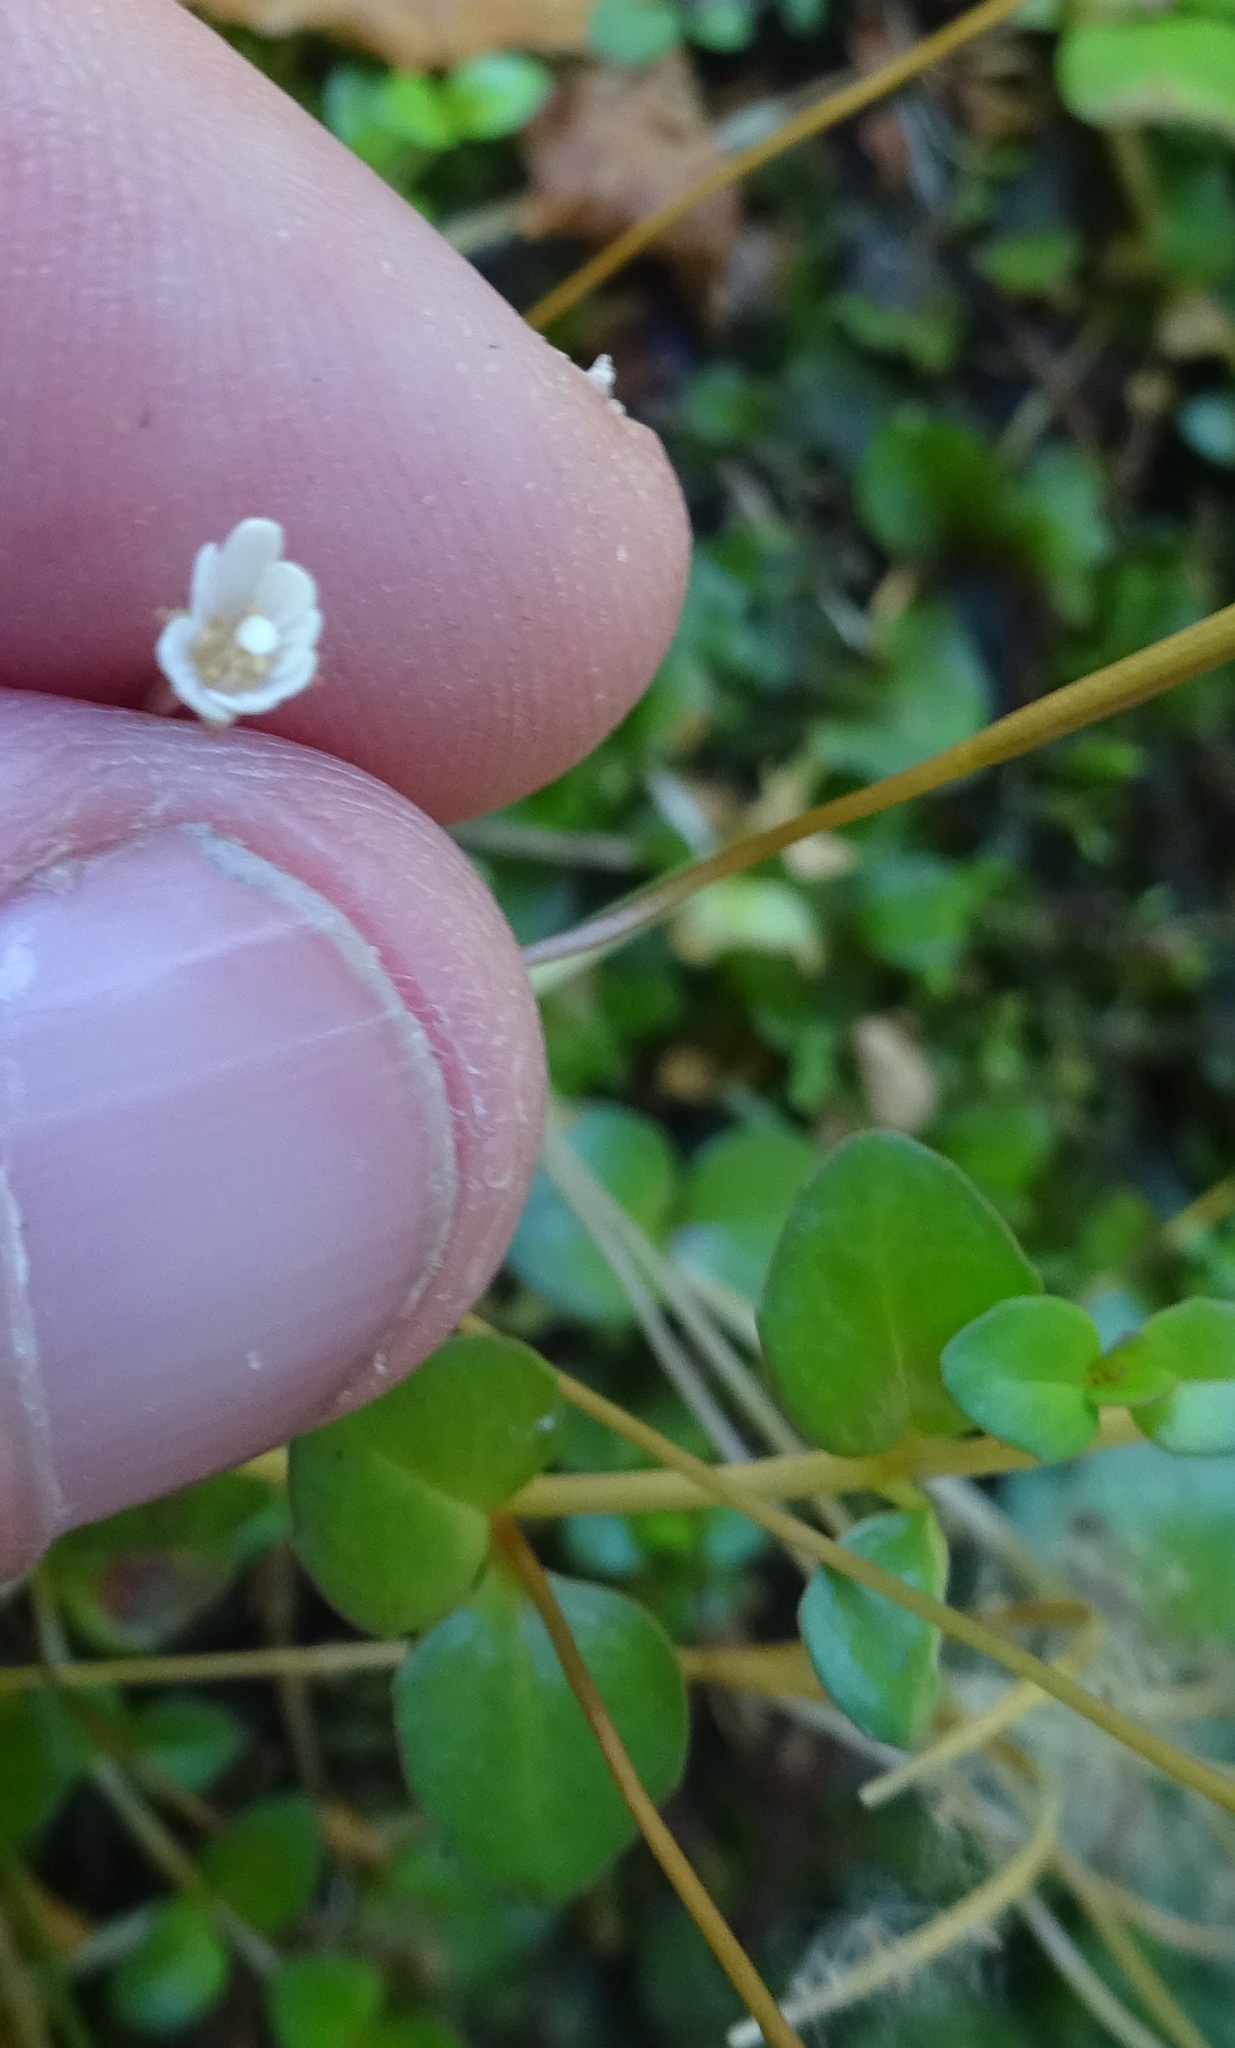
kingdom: Plantae
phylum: Tracheophyta
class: Magnoliopsida
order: Myrtales
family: Onagraceae
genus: Epilobium
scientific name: Epilobium brunnescens
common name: New zealand willowherb
